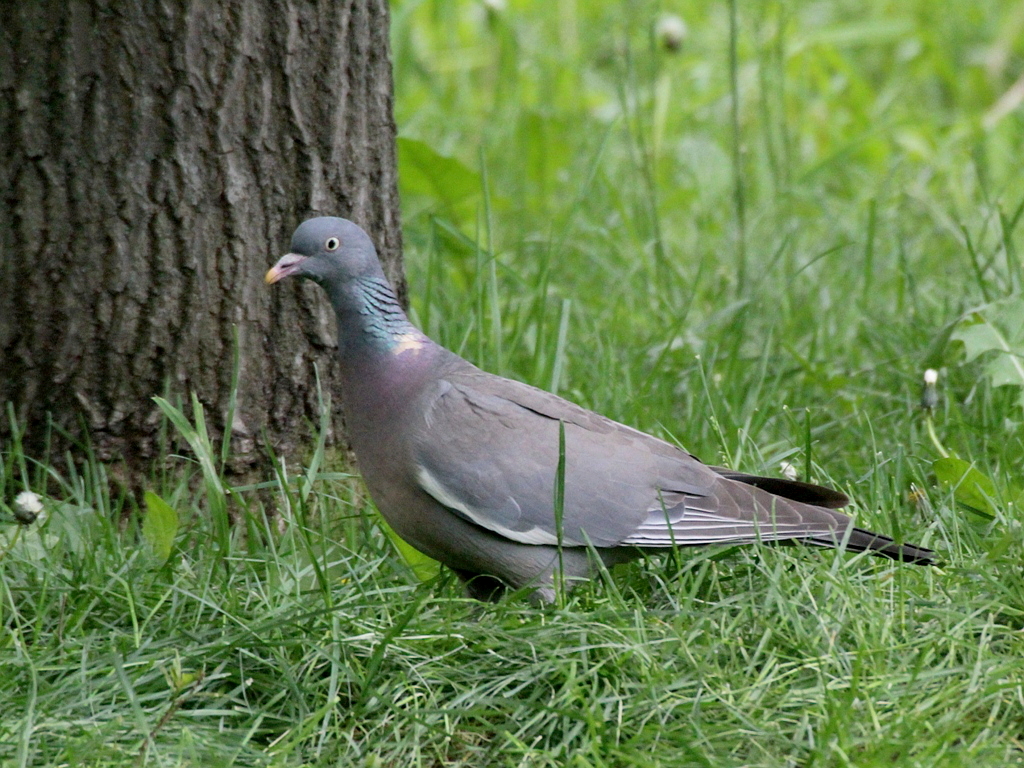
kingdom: Animalia
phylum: Chordata
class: Aves
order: Columbiformes
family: Columbidae
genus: Columba
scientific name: Columba palumbus
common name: Common wood pigeon
